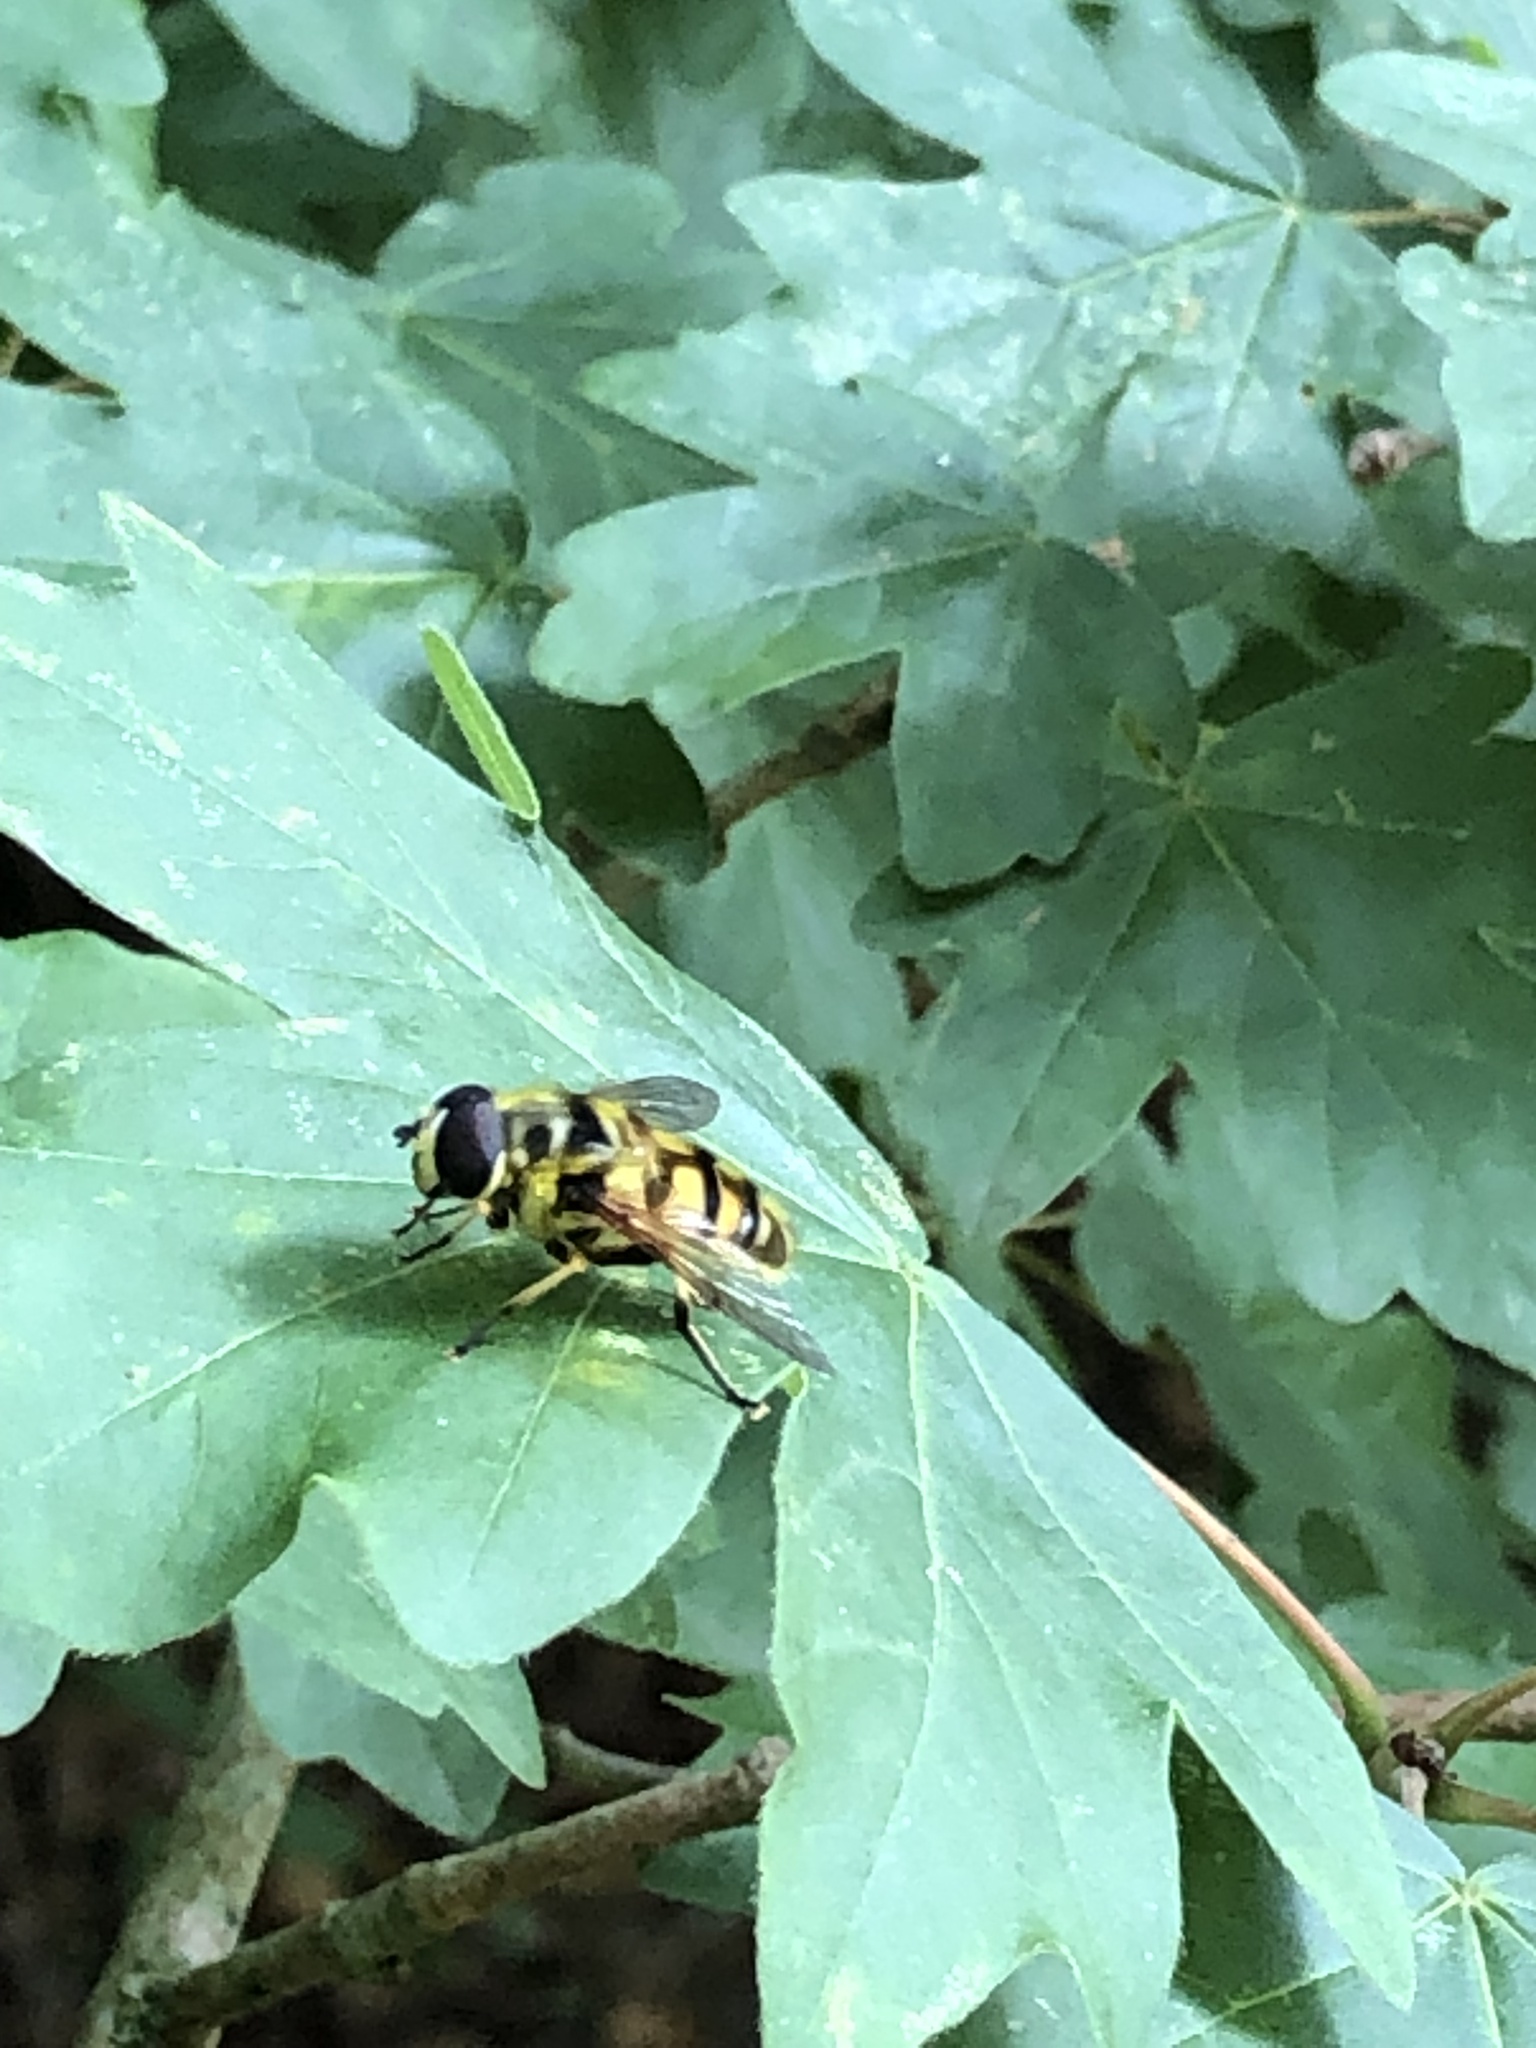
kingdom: Animalia
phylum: Arthropoda
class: Insecta
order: Diptera
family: Syrphidae
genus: Myathropa
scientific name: Myathropa florea
